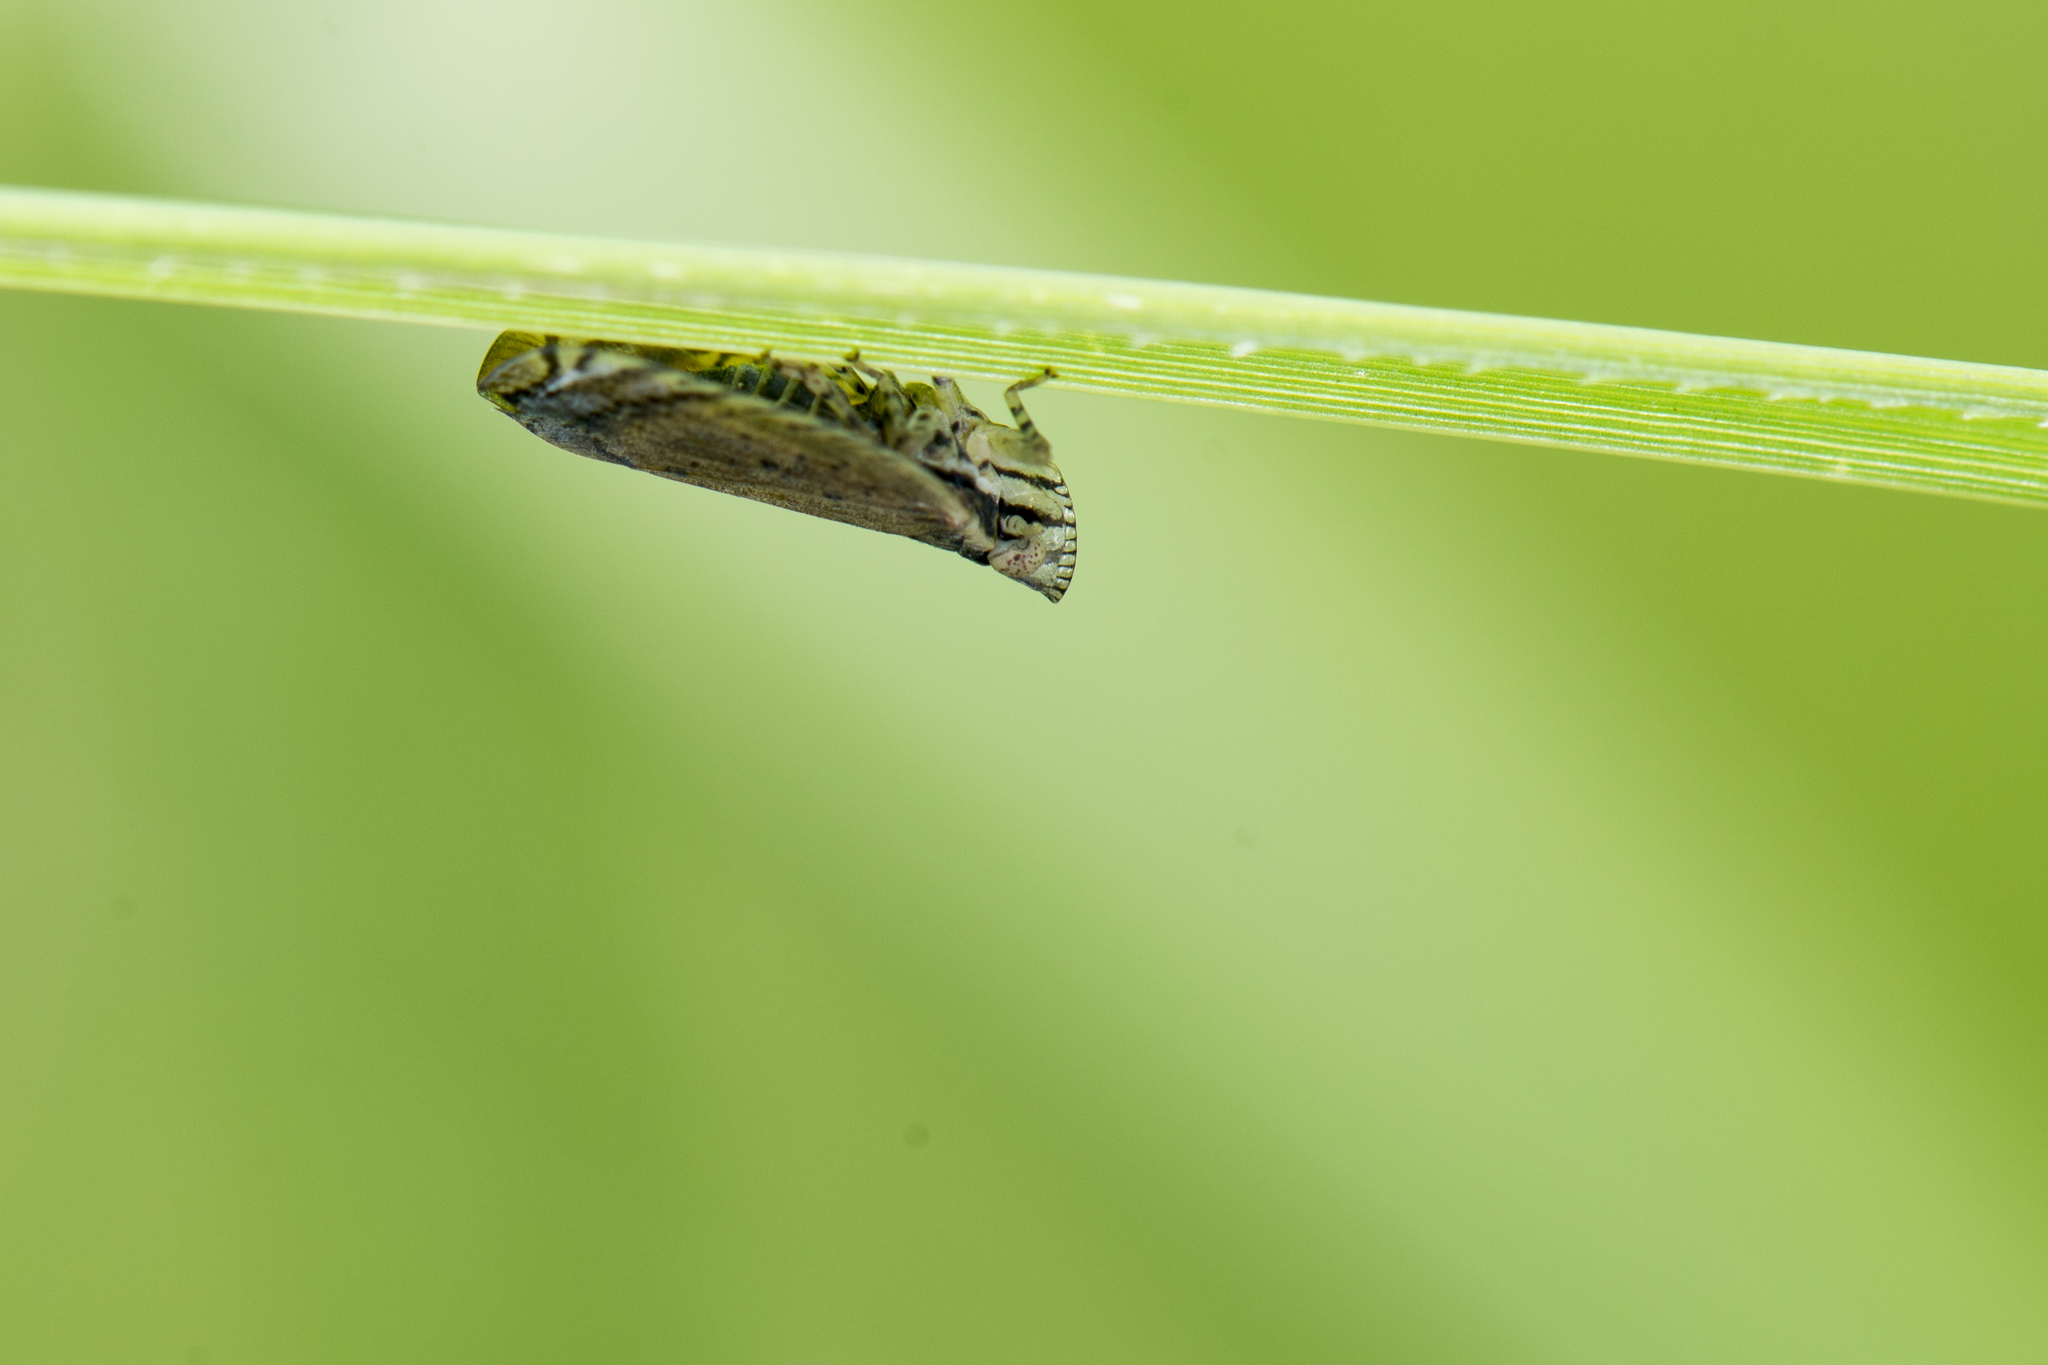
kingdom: Animalia
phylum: Arthropoda
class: Insecta
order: Hemiptera
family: Lophopidae
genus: Lophops
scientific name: Lophops carinata
